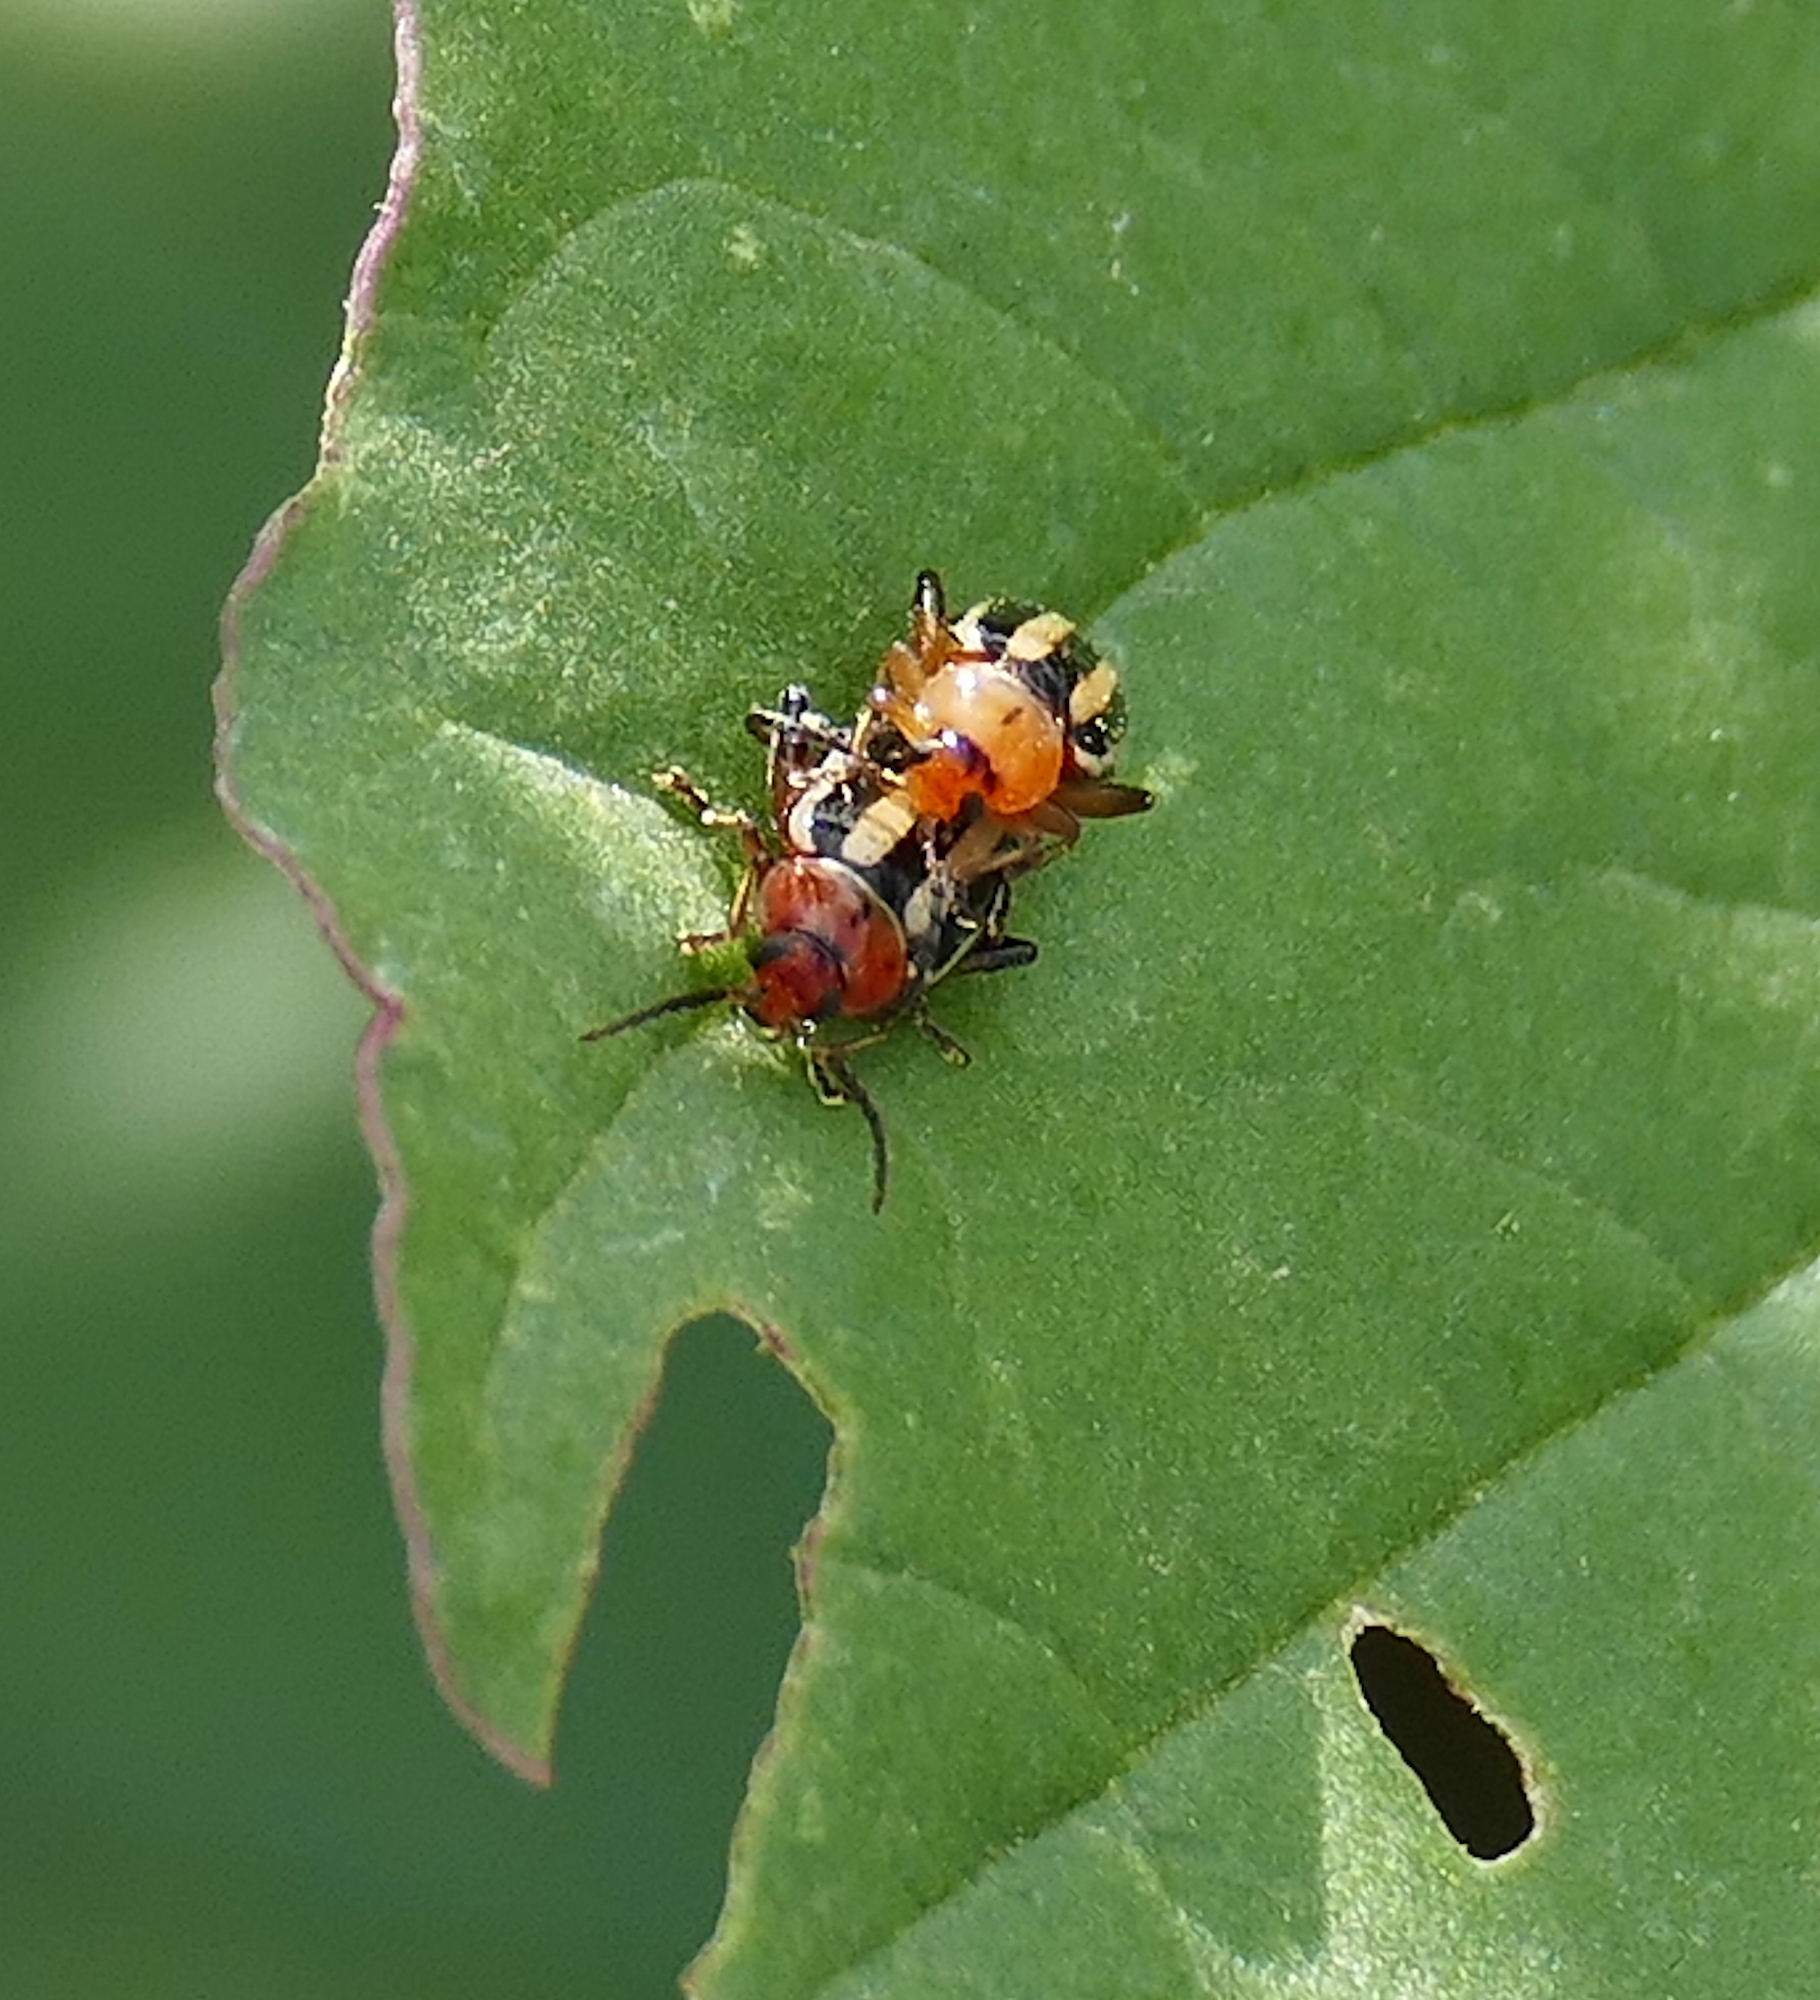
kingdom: Animalia
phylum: Arthropoda
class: Insecta
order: Coleoptera
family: Chrysomelidae
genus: Disonycha
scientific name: Disonycha glabrata
